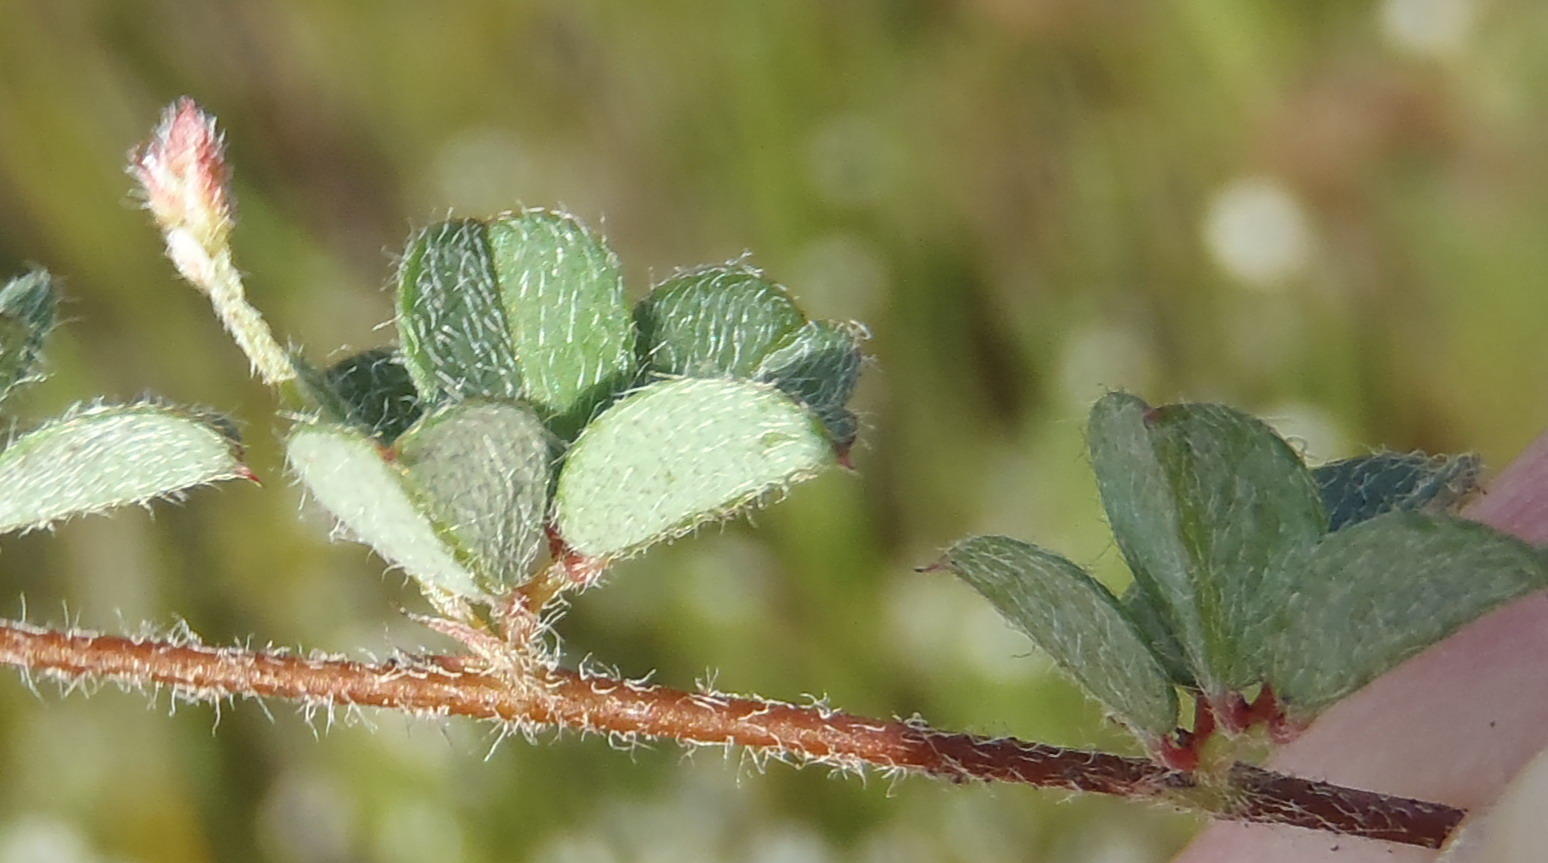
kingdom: Plantae
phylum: Tracheophyta
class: Magnoliopsida
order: Fabales
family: Fabaceae
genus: Indigofera
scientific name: Indigofera alopecuroides
